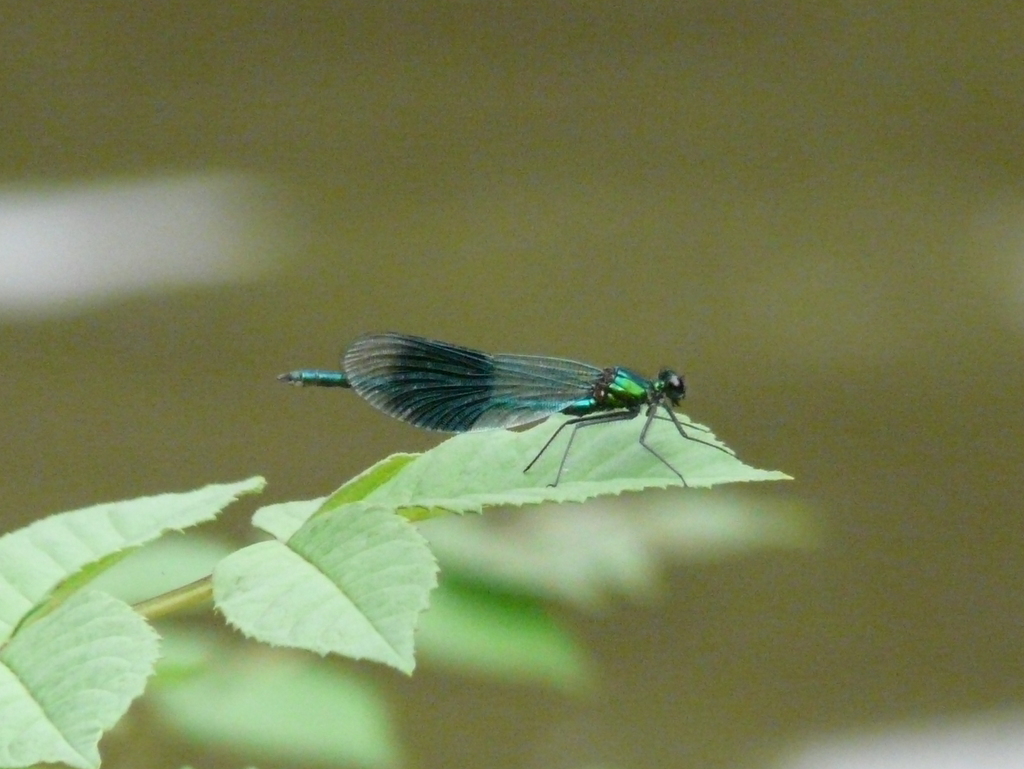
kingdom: Animalia
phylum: Arthropoda
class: Insecta
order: Odonata
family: Calopterygidae
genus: Calopteryx
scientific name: Calopteryx splendens
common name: Banded demoiselle
